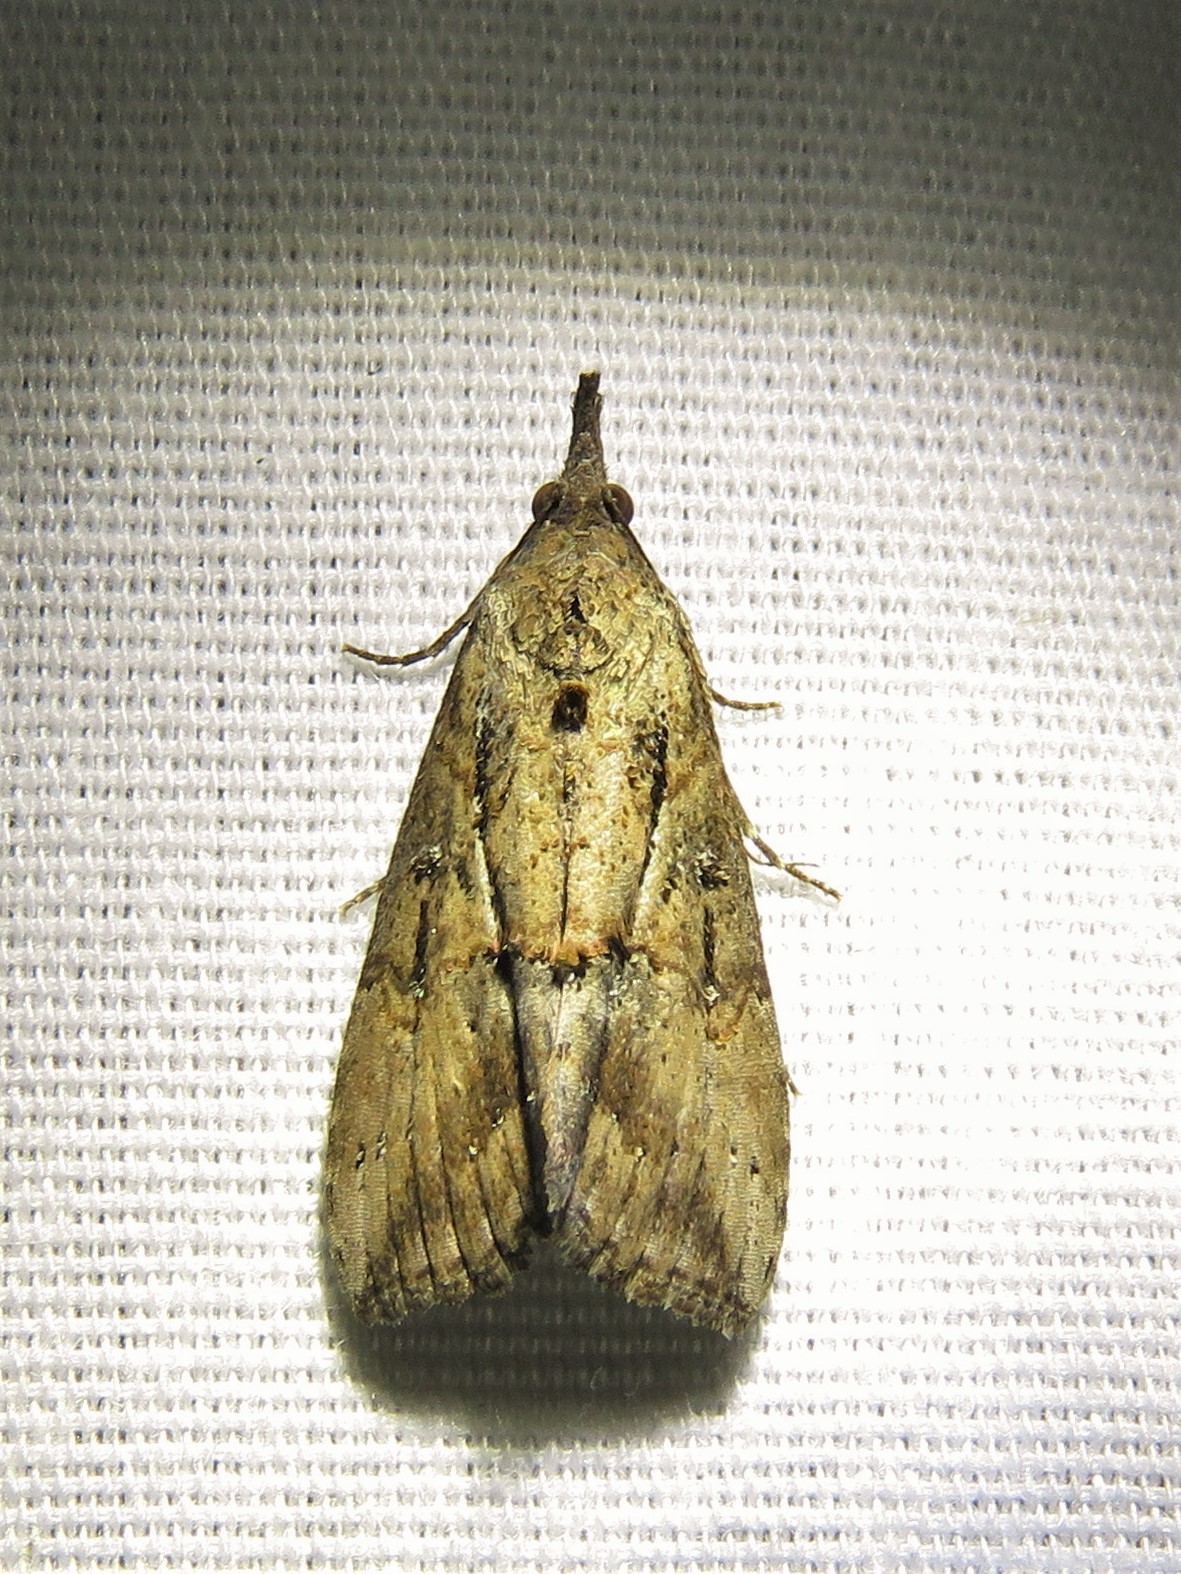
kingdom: Animalia
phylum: Arthropoda
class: Insecta
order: Lepidoptera
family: Erebidae
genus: Hypena
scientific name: Hypena scabra
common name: Green cloverworm
